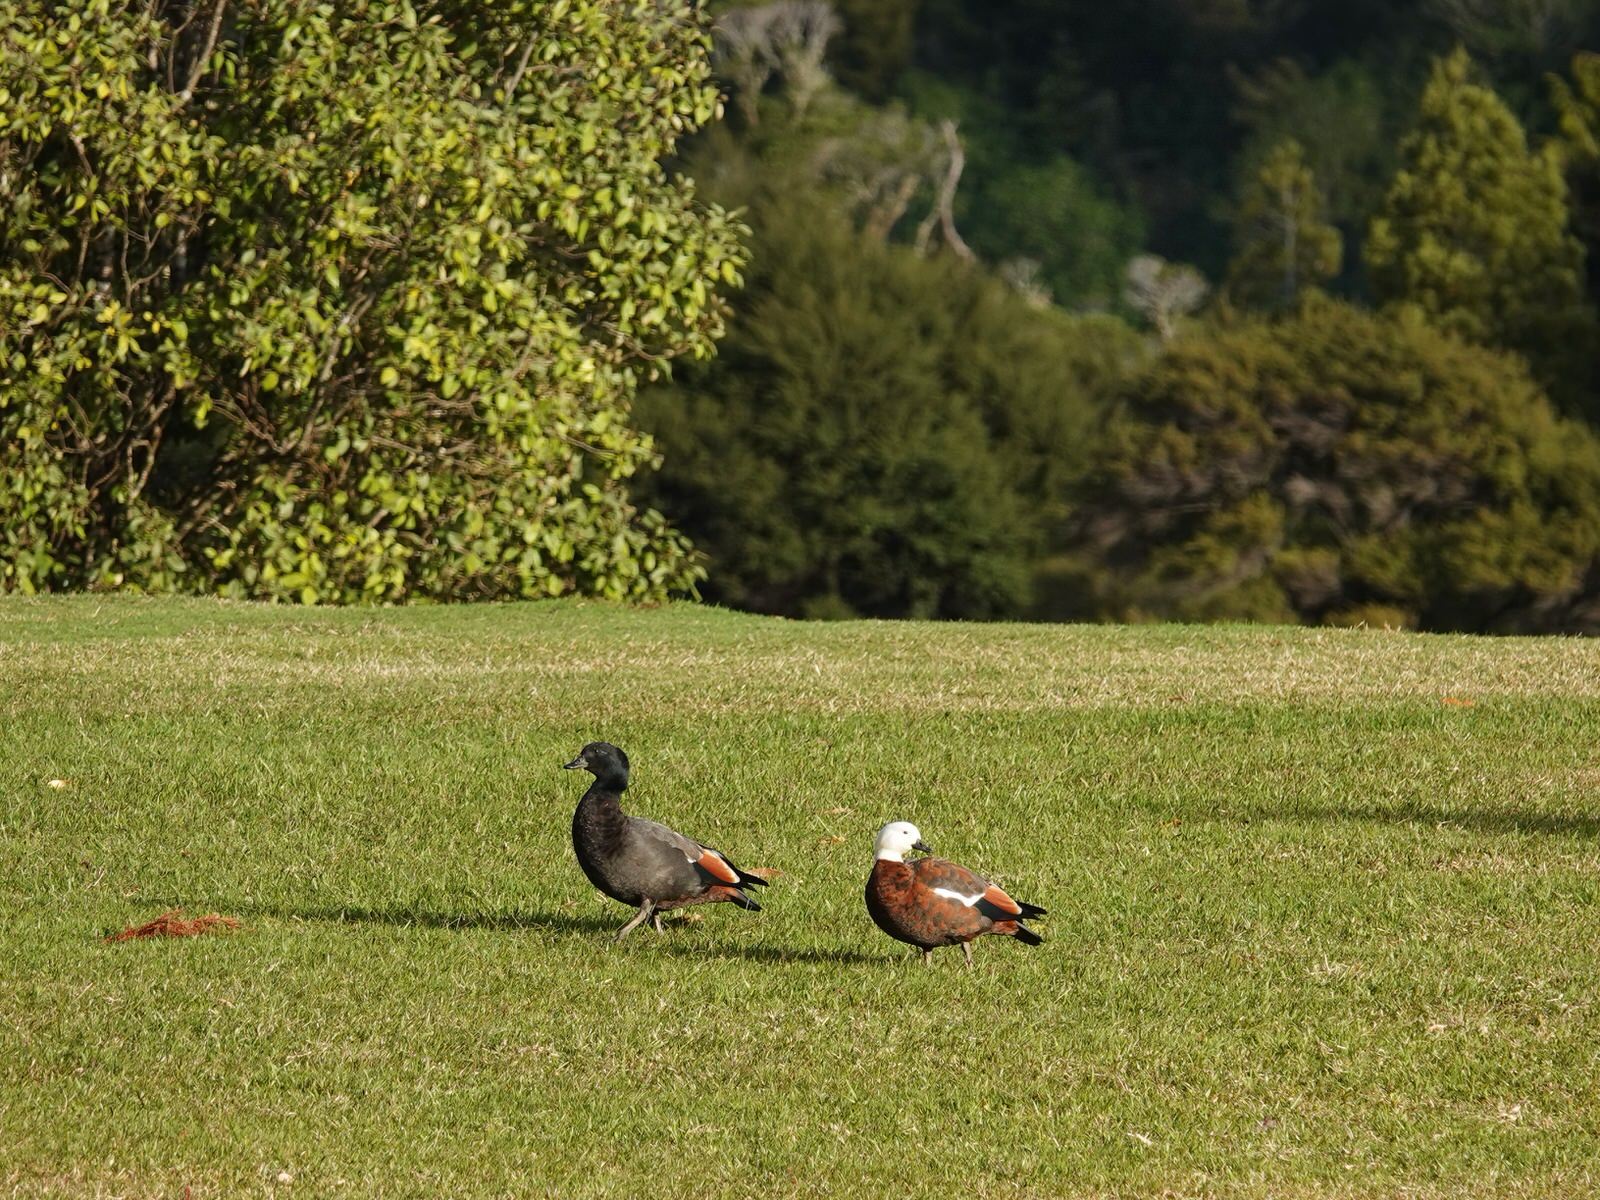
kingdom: Animalia
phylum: Chordata
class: Aves
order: Anseriformes
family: Anatidae
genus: Tadorna
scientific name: Tadorna variegata
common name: Paradise shelduck
